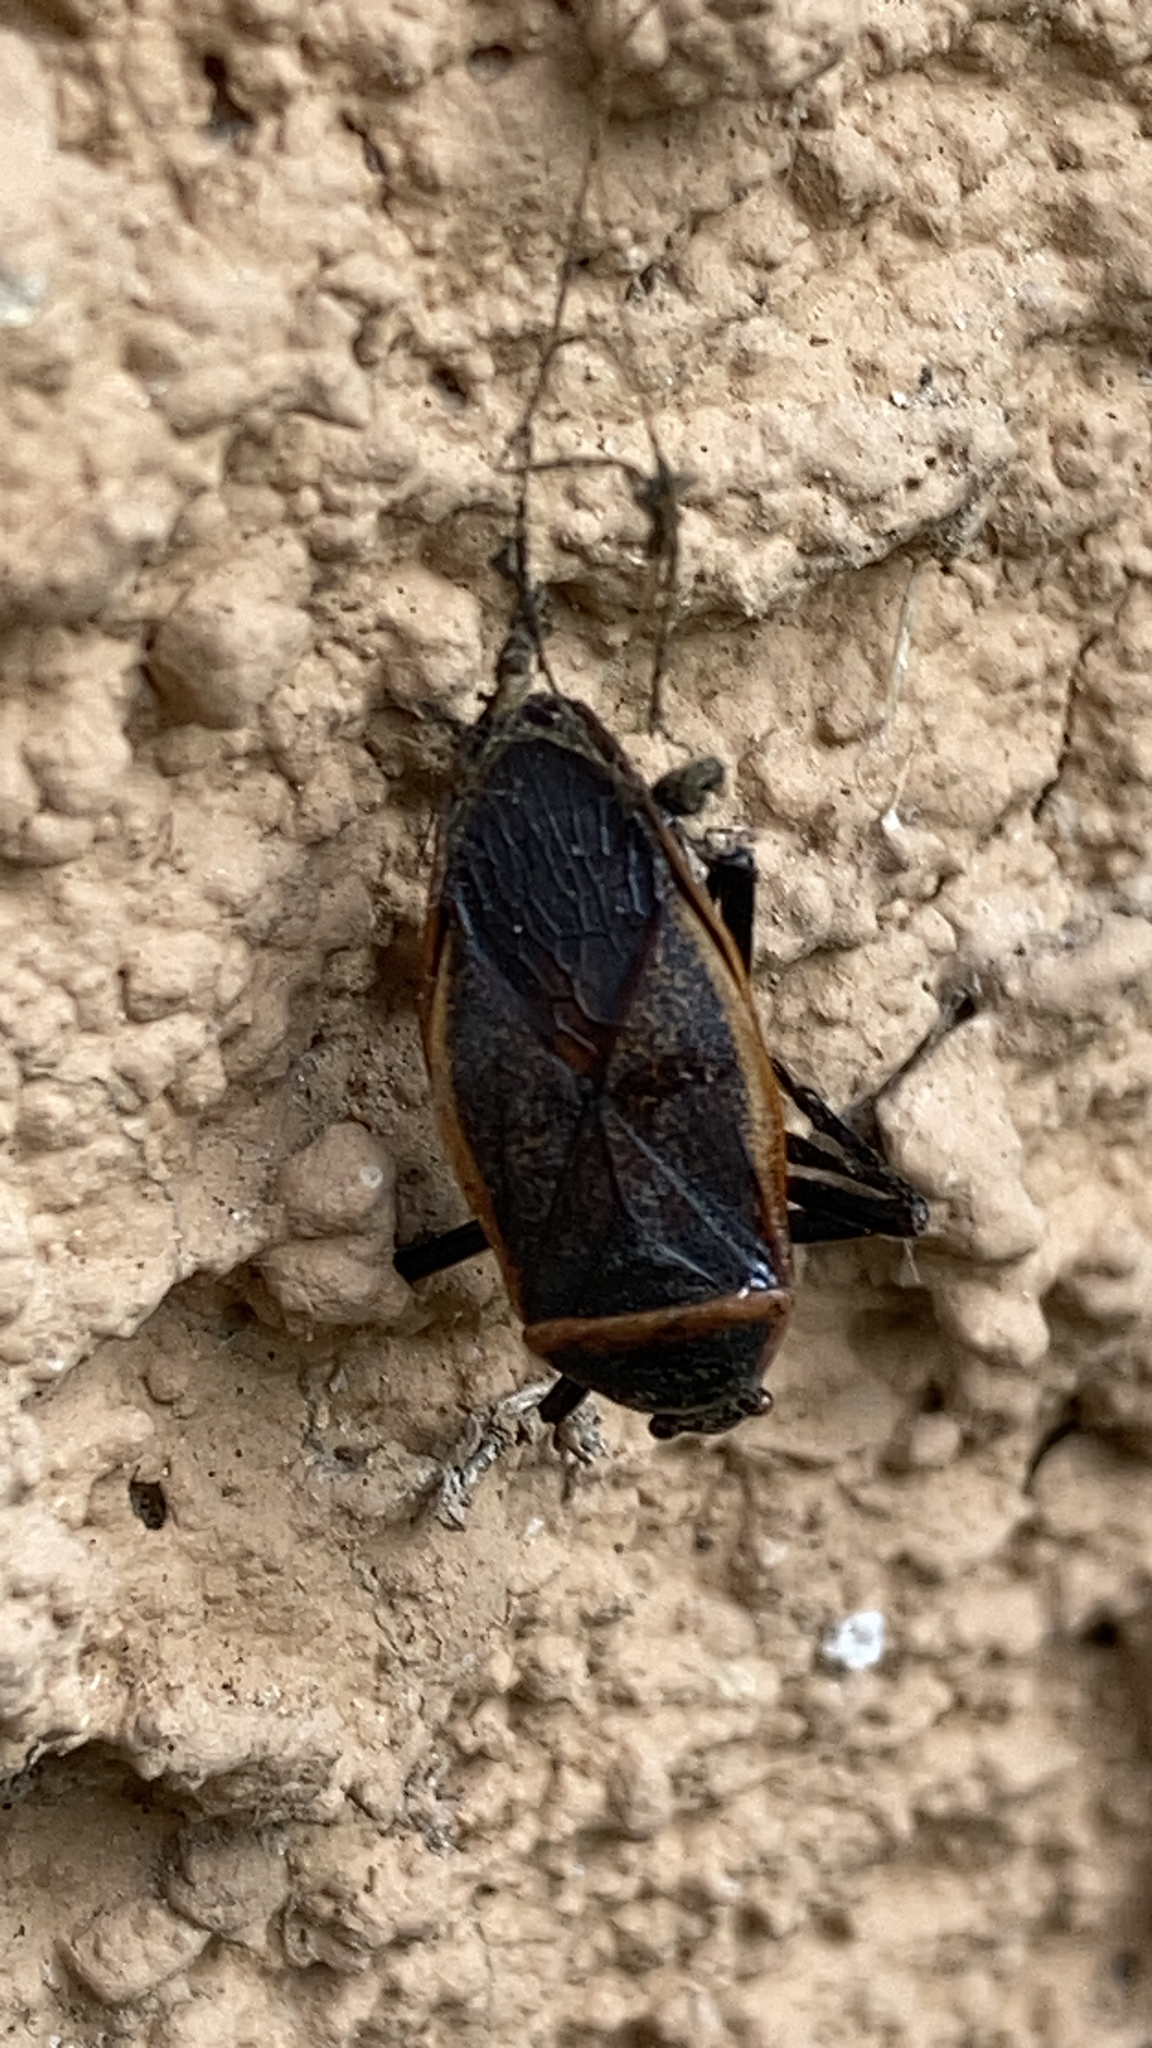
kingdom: Animalia
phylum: Arthropoda
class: Insecta
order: Hemiptera
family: Largidae
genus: Largus
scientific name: Largus succinctus
